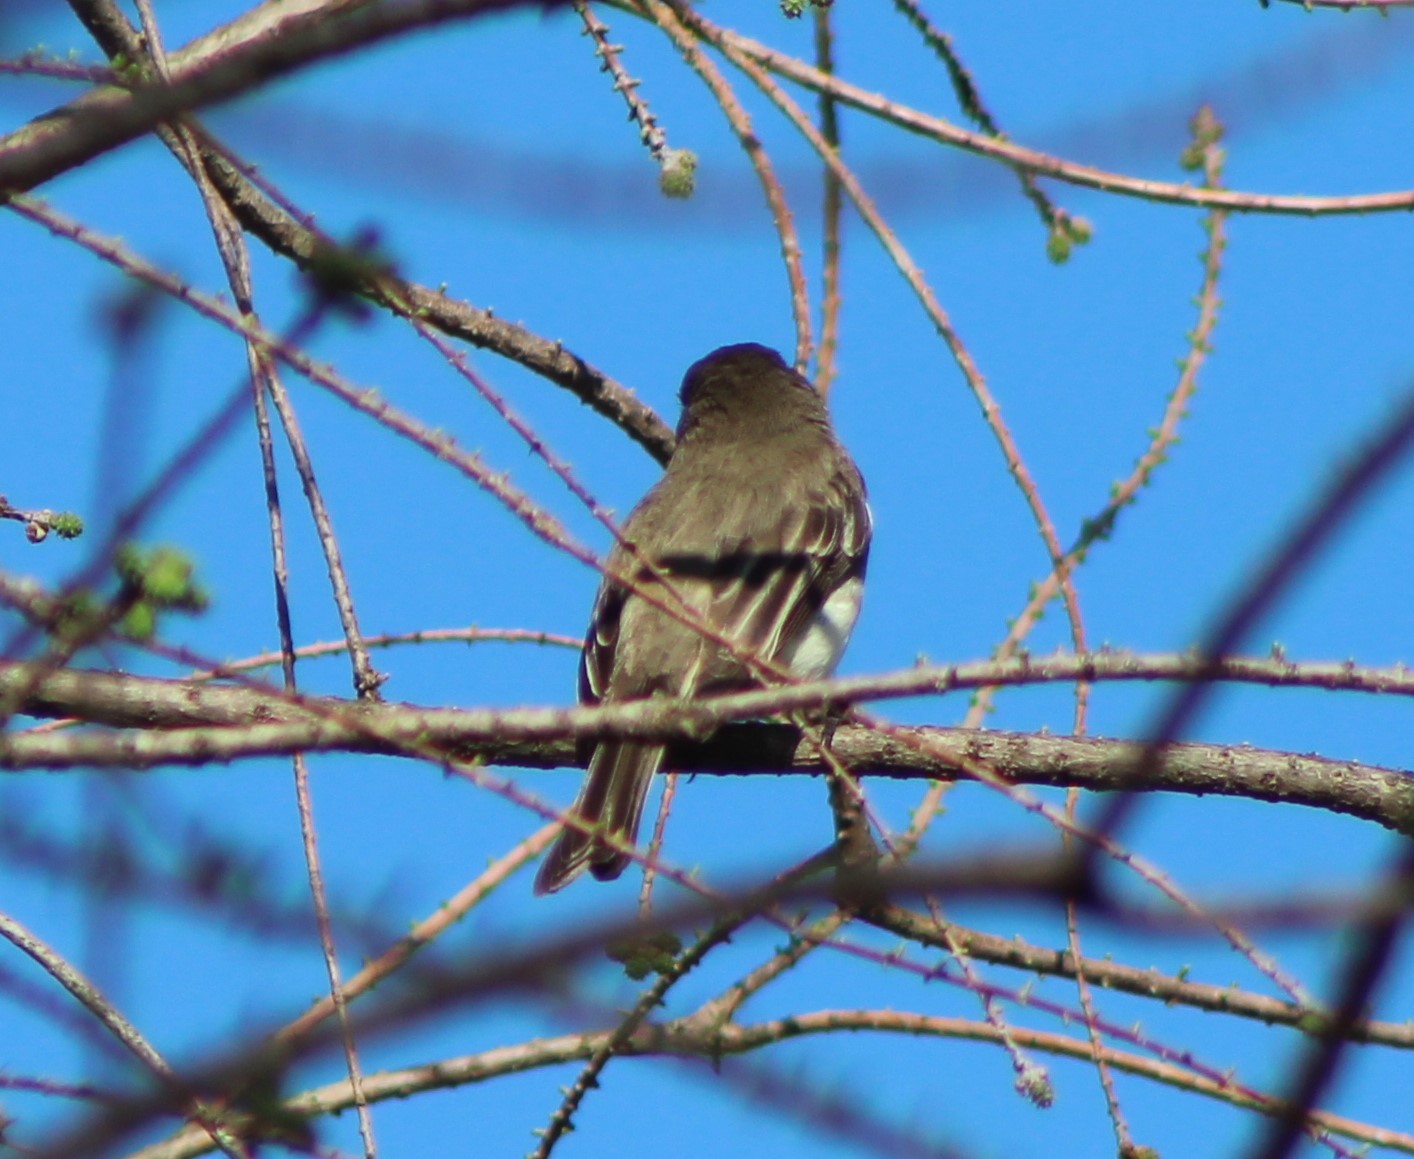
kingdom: Animalia
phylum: Chordata
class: Aves
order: Passeriformes
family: Tyrannidae
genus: Sayornis
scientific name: Sayornis phoebe
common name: Eastern phoebe
